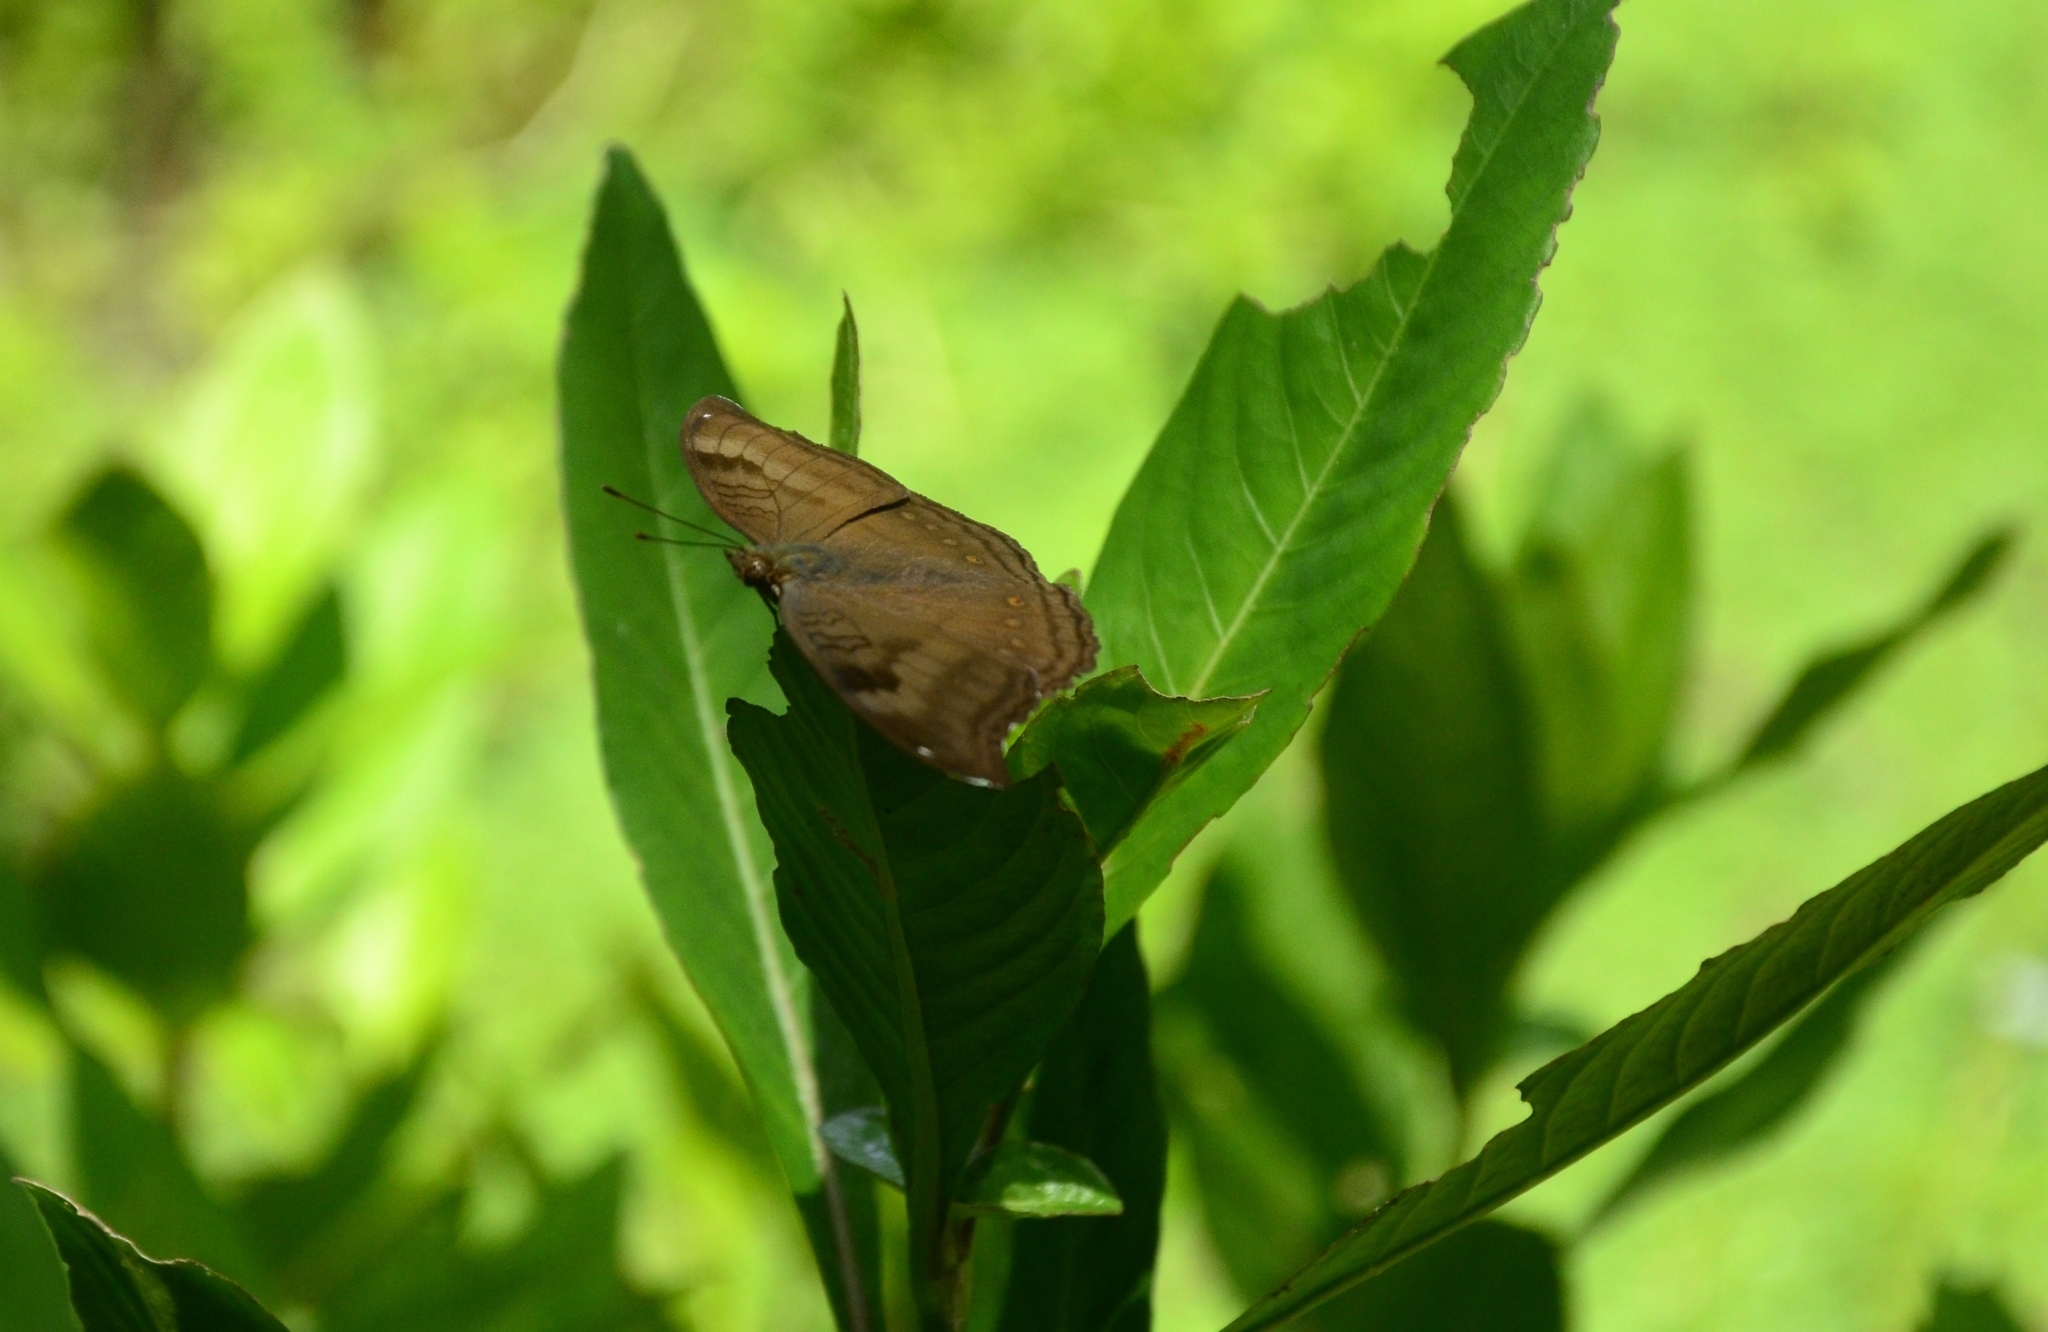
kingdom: Animalia
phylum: Arthropoda
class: Insecta
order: Lepidoptera
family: Nymphalidae
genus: Junonia
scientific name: Junonia iphita
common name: Chocolate pansy
